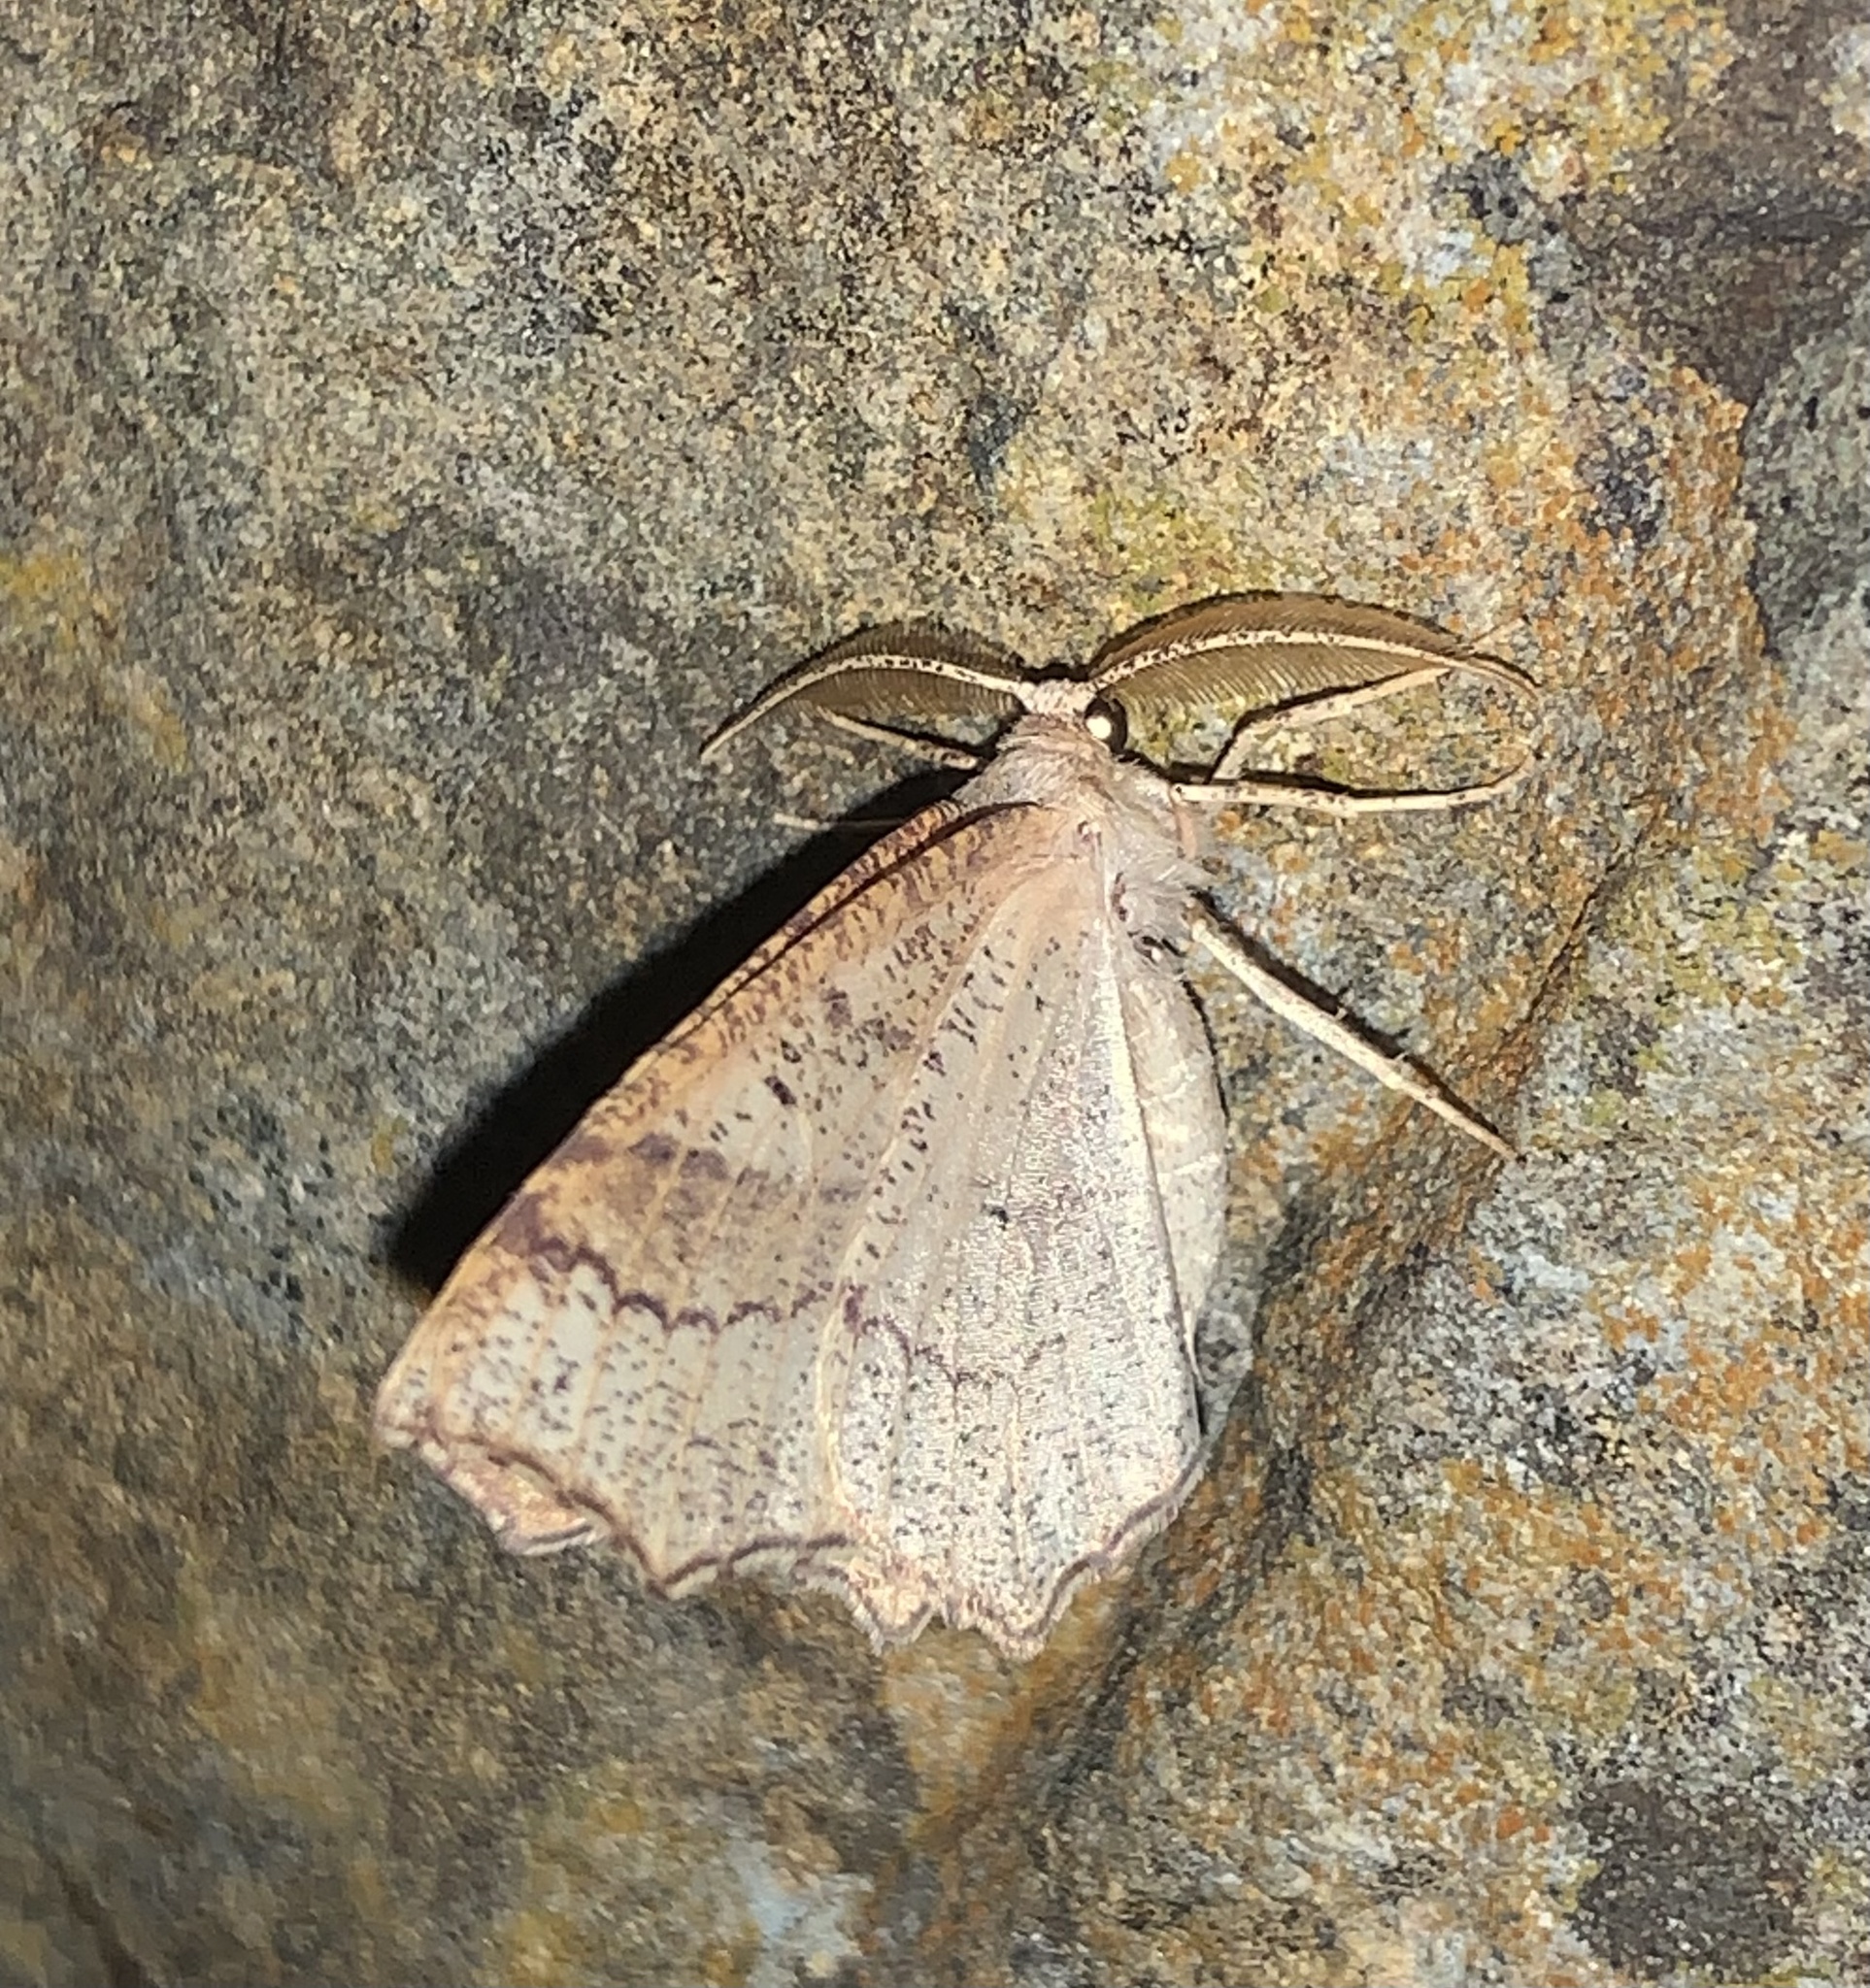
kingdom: Animalia
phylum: Arthropoda
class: Insecta
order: Lepidoptera
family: Geometridae
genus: Besma
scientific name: Besma quercivoraria
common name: Oak besma
